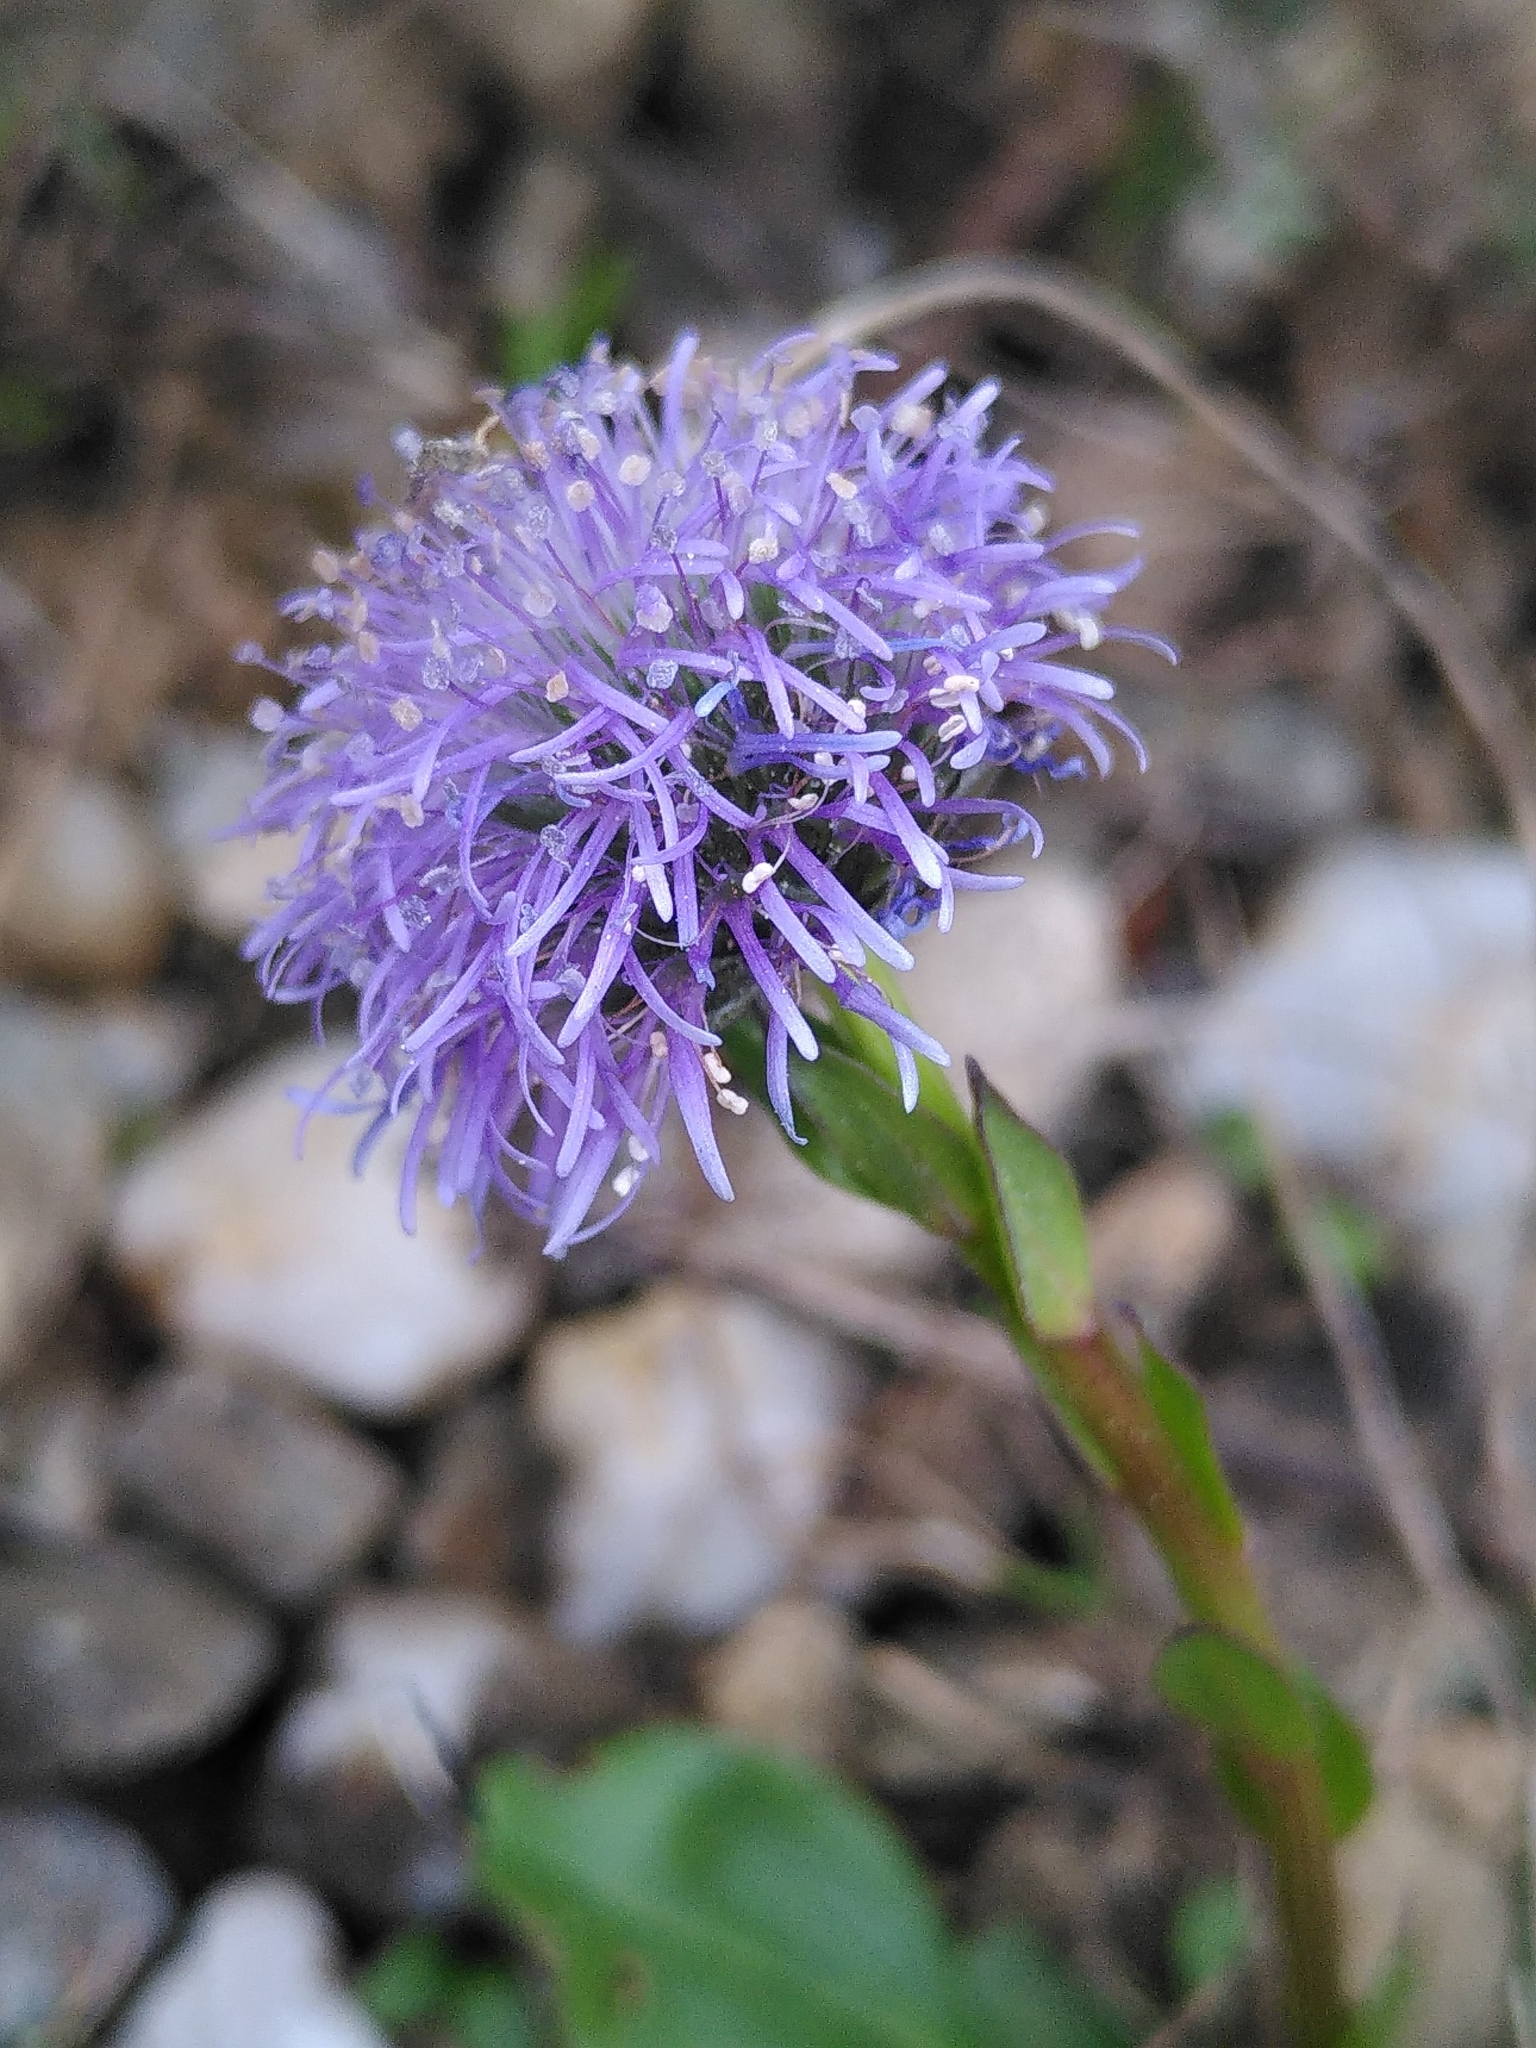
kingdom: Plantae
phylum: Tracheophyta
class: Magnoliopsida
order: Lamiales
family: Plantaginaceae
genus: Globularia
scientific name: Globularia bisnagarica
